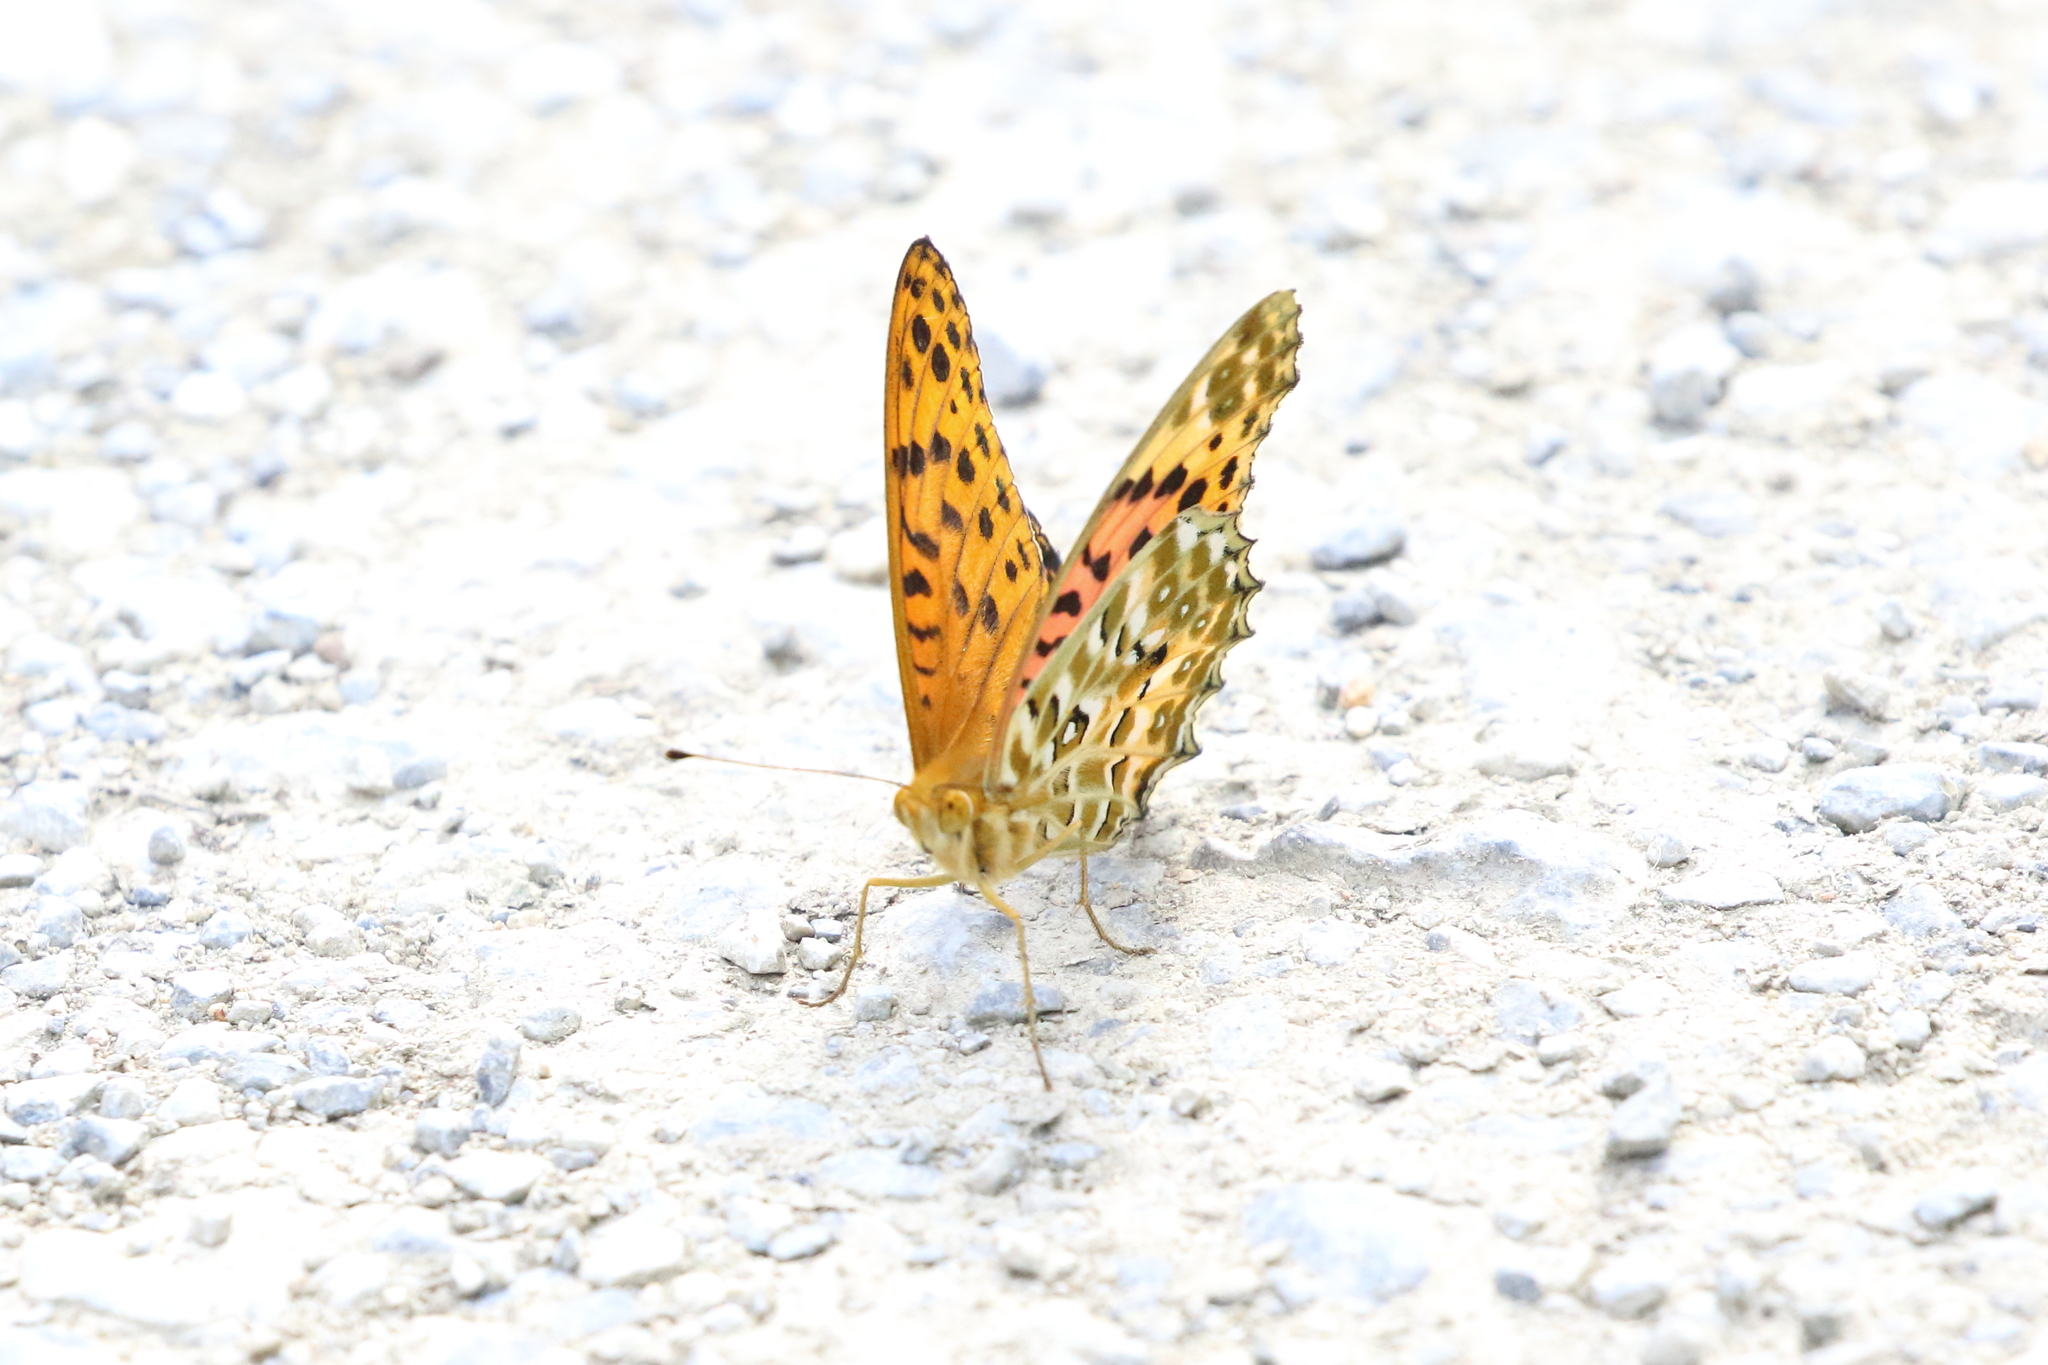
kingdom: Animalia
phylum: Arthropoda
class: Insecta
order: Lepidoptera
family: Nymphalidae
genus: Argynnis
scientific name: Argynnis hyperbius
